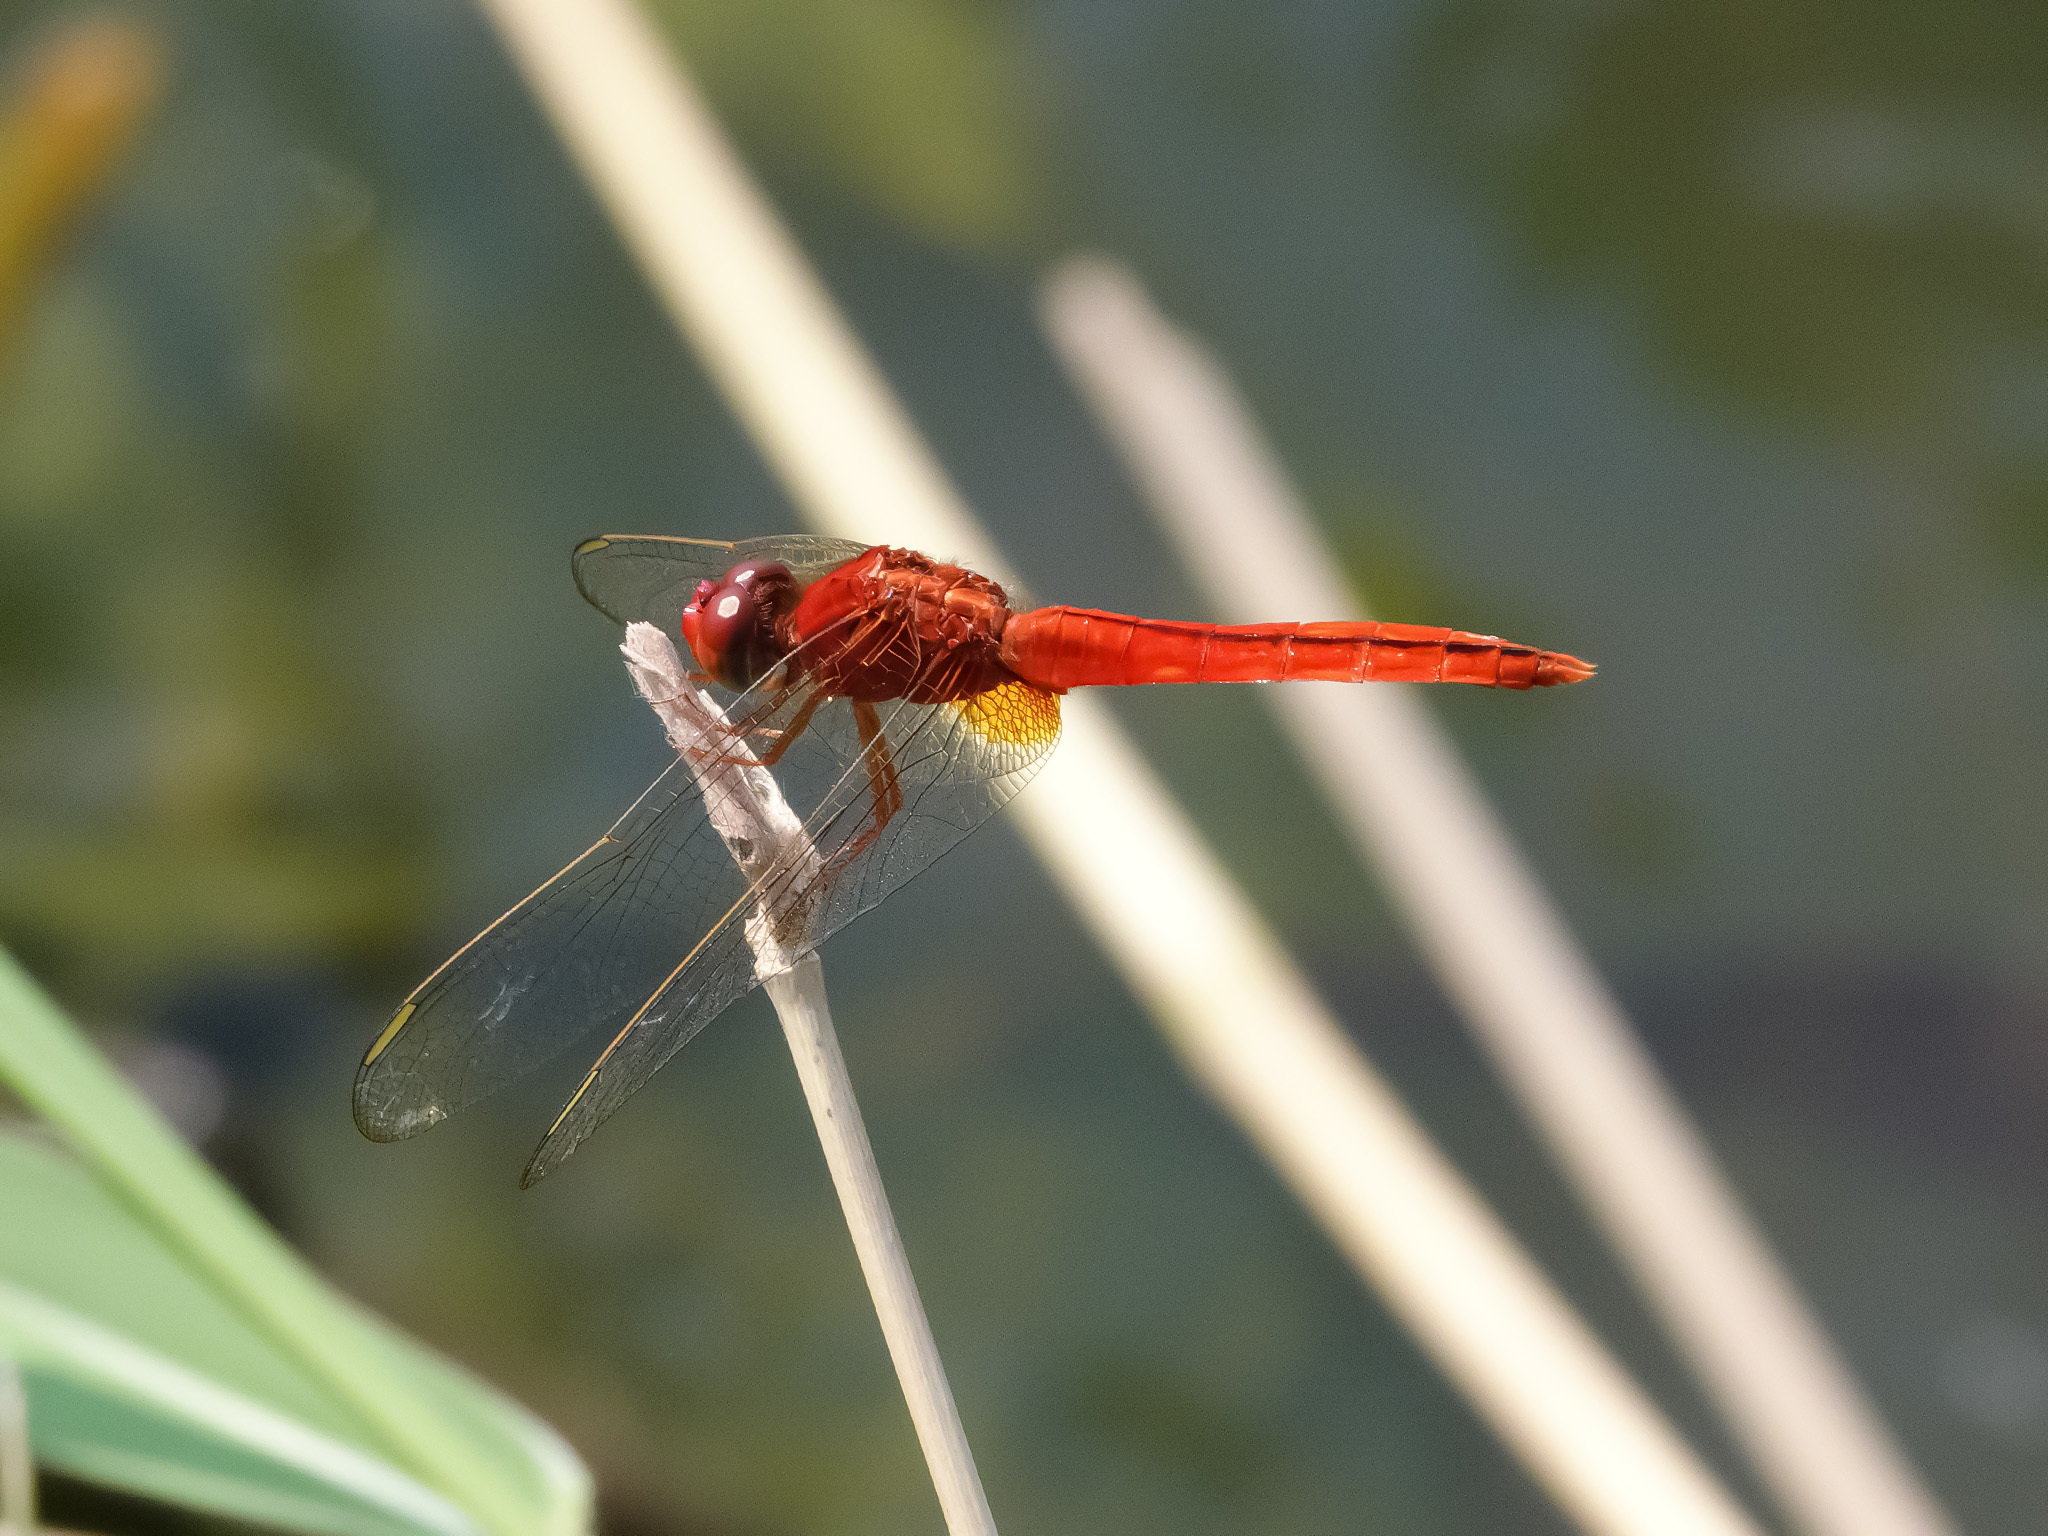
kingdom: Animalia
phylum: Arthropoda
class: Insecta
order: Odonata
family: Libellulidae
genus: Crocothemis
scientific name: Crocothemis servilia
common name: Scarlet skimmer
